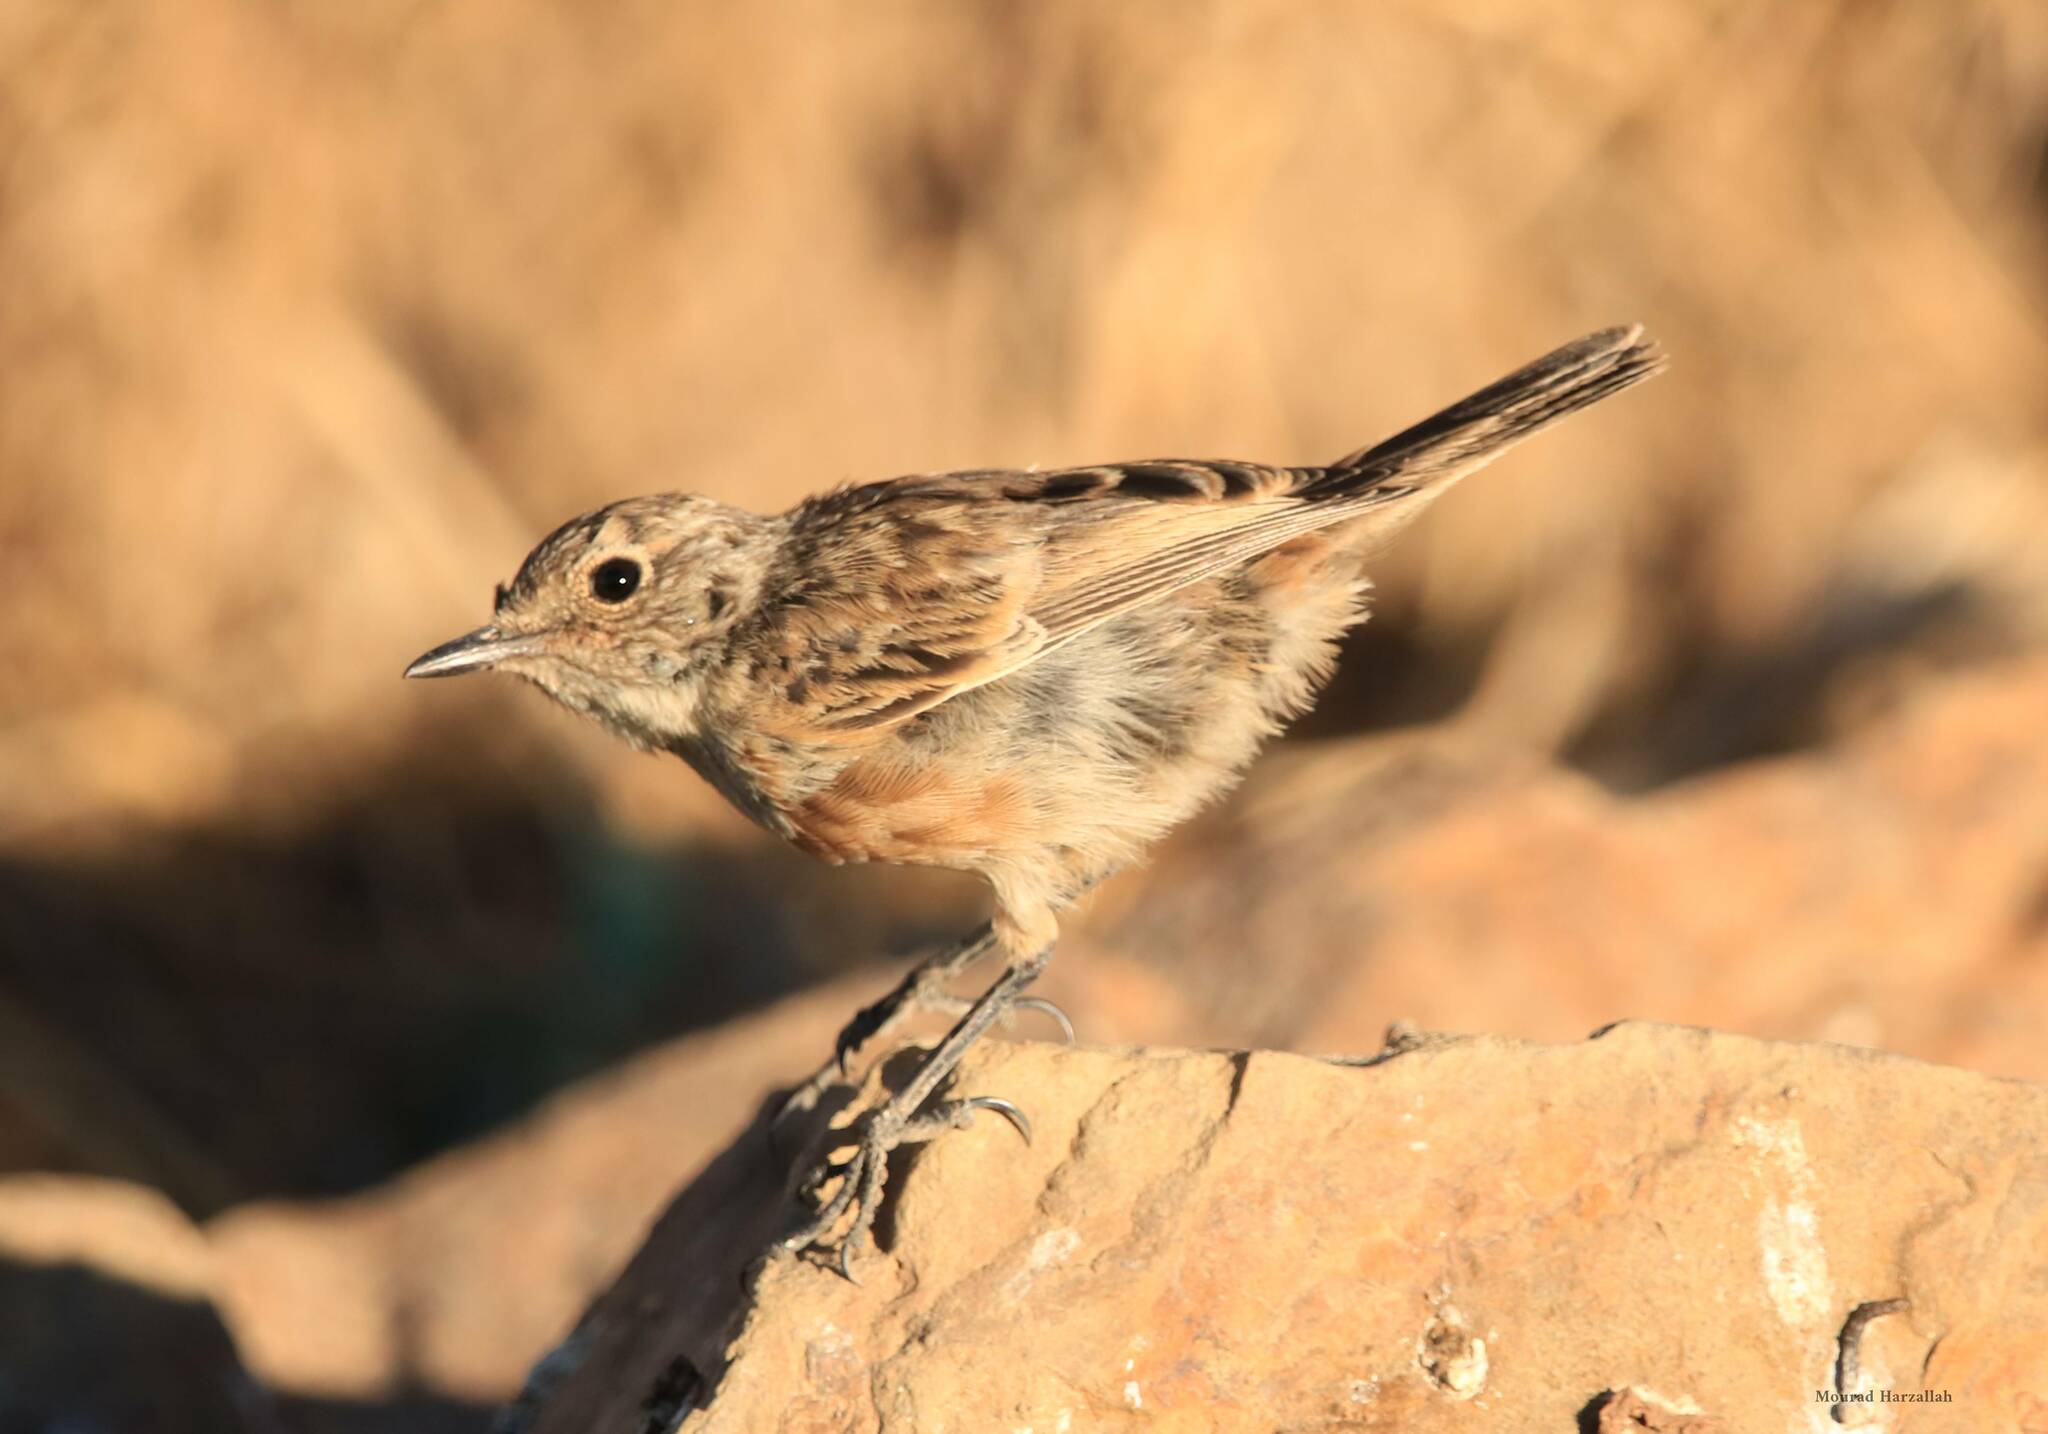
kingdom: Animalia
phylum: Chordata
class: Aves
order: Passeriformes
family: Muscicapidae
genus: Saxicola
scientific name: Saxicola rubicola
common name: European stonechat
